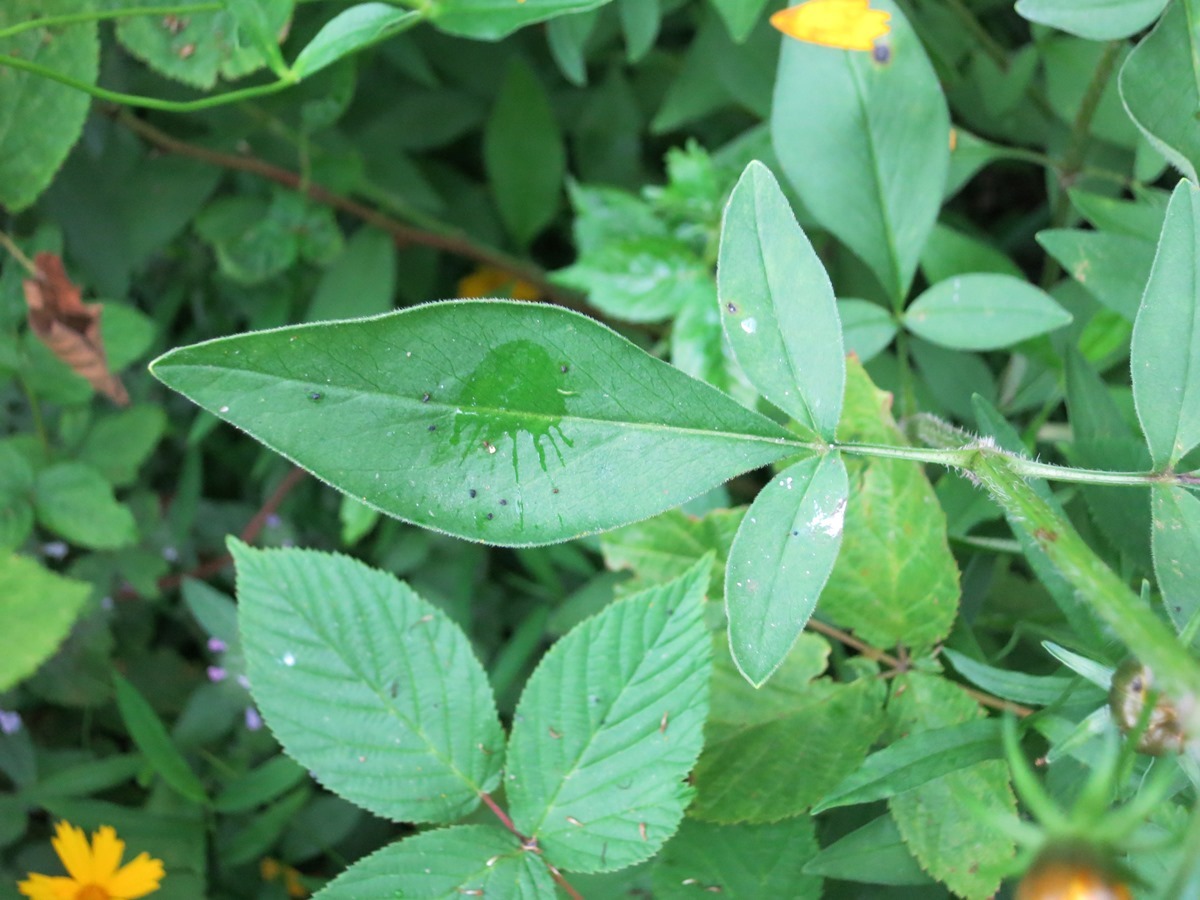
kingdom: Plantae
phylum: Tracheophyta
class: Magnoliopsida
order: Asterales
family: Asteraceae
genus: Coreopsis
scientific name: Coreopsis auriculata
